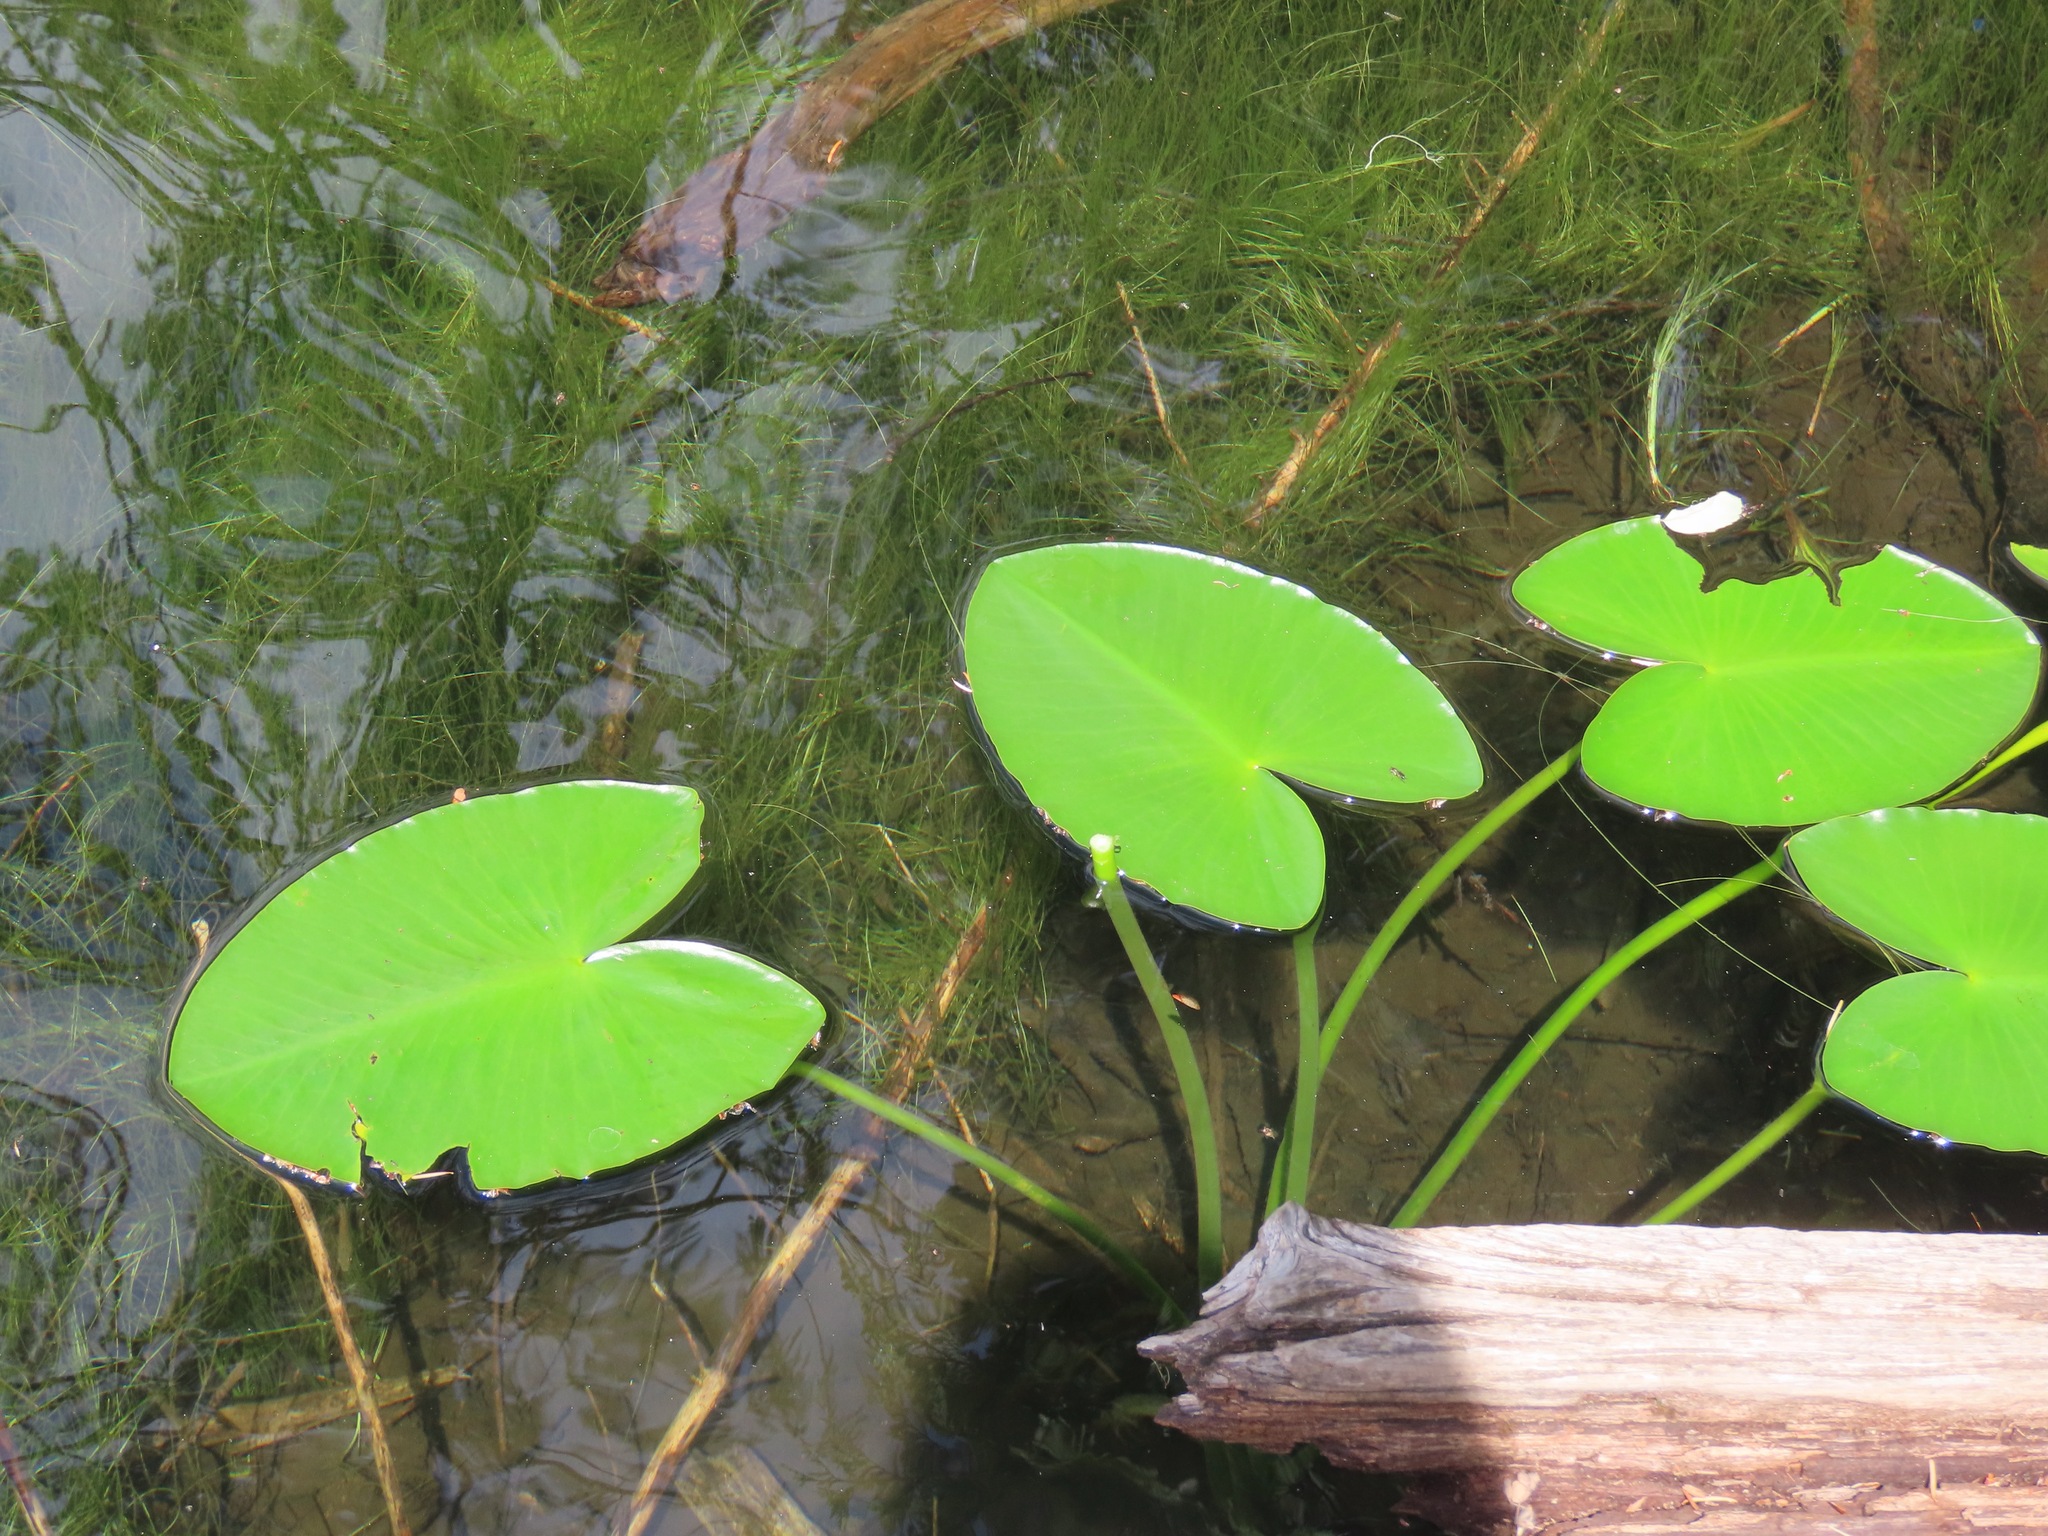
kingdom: Plantae
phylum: Tracheophyta
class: Magnoliopsida
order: Nymphaeales
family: Nymphaeaceae
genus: Nuphar
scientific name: Nuphar polysepala
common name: Rocky mountain cow-lily
